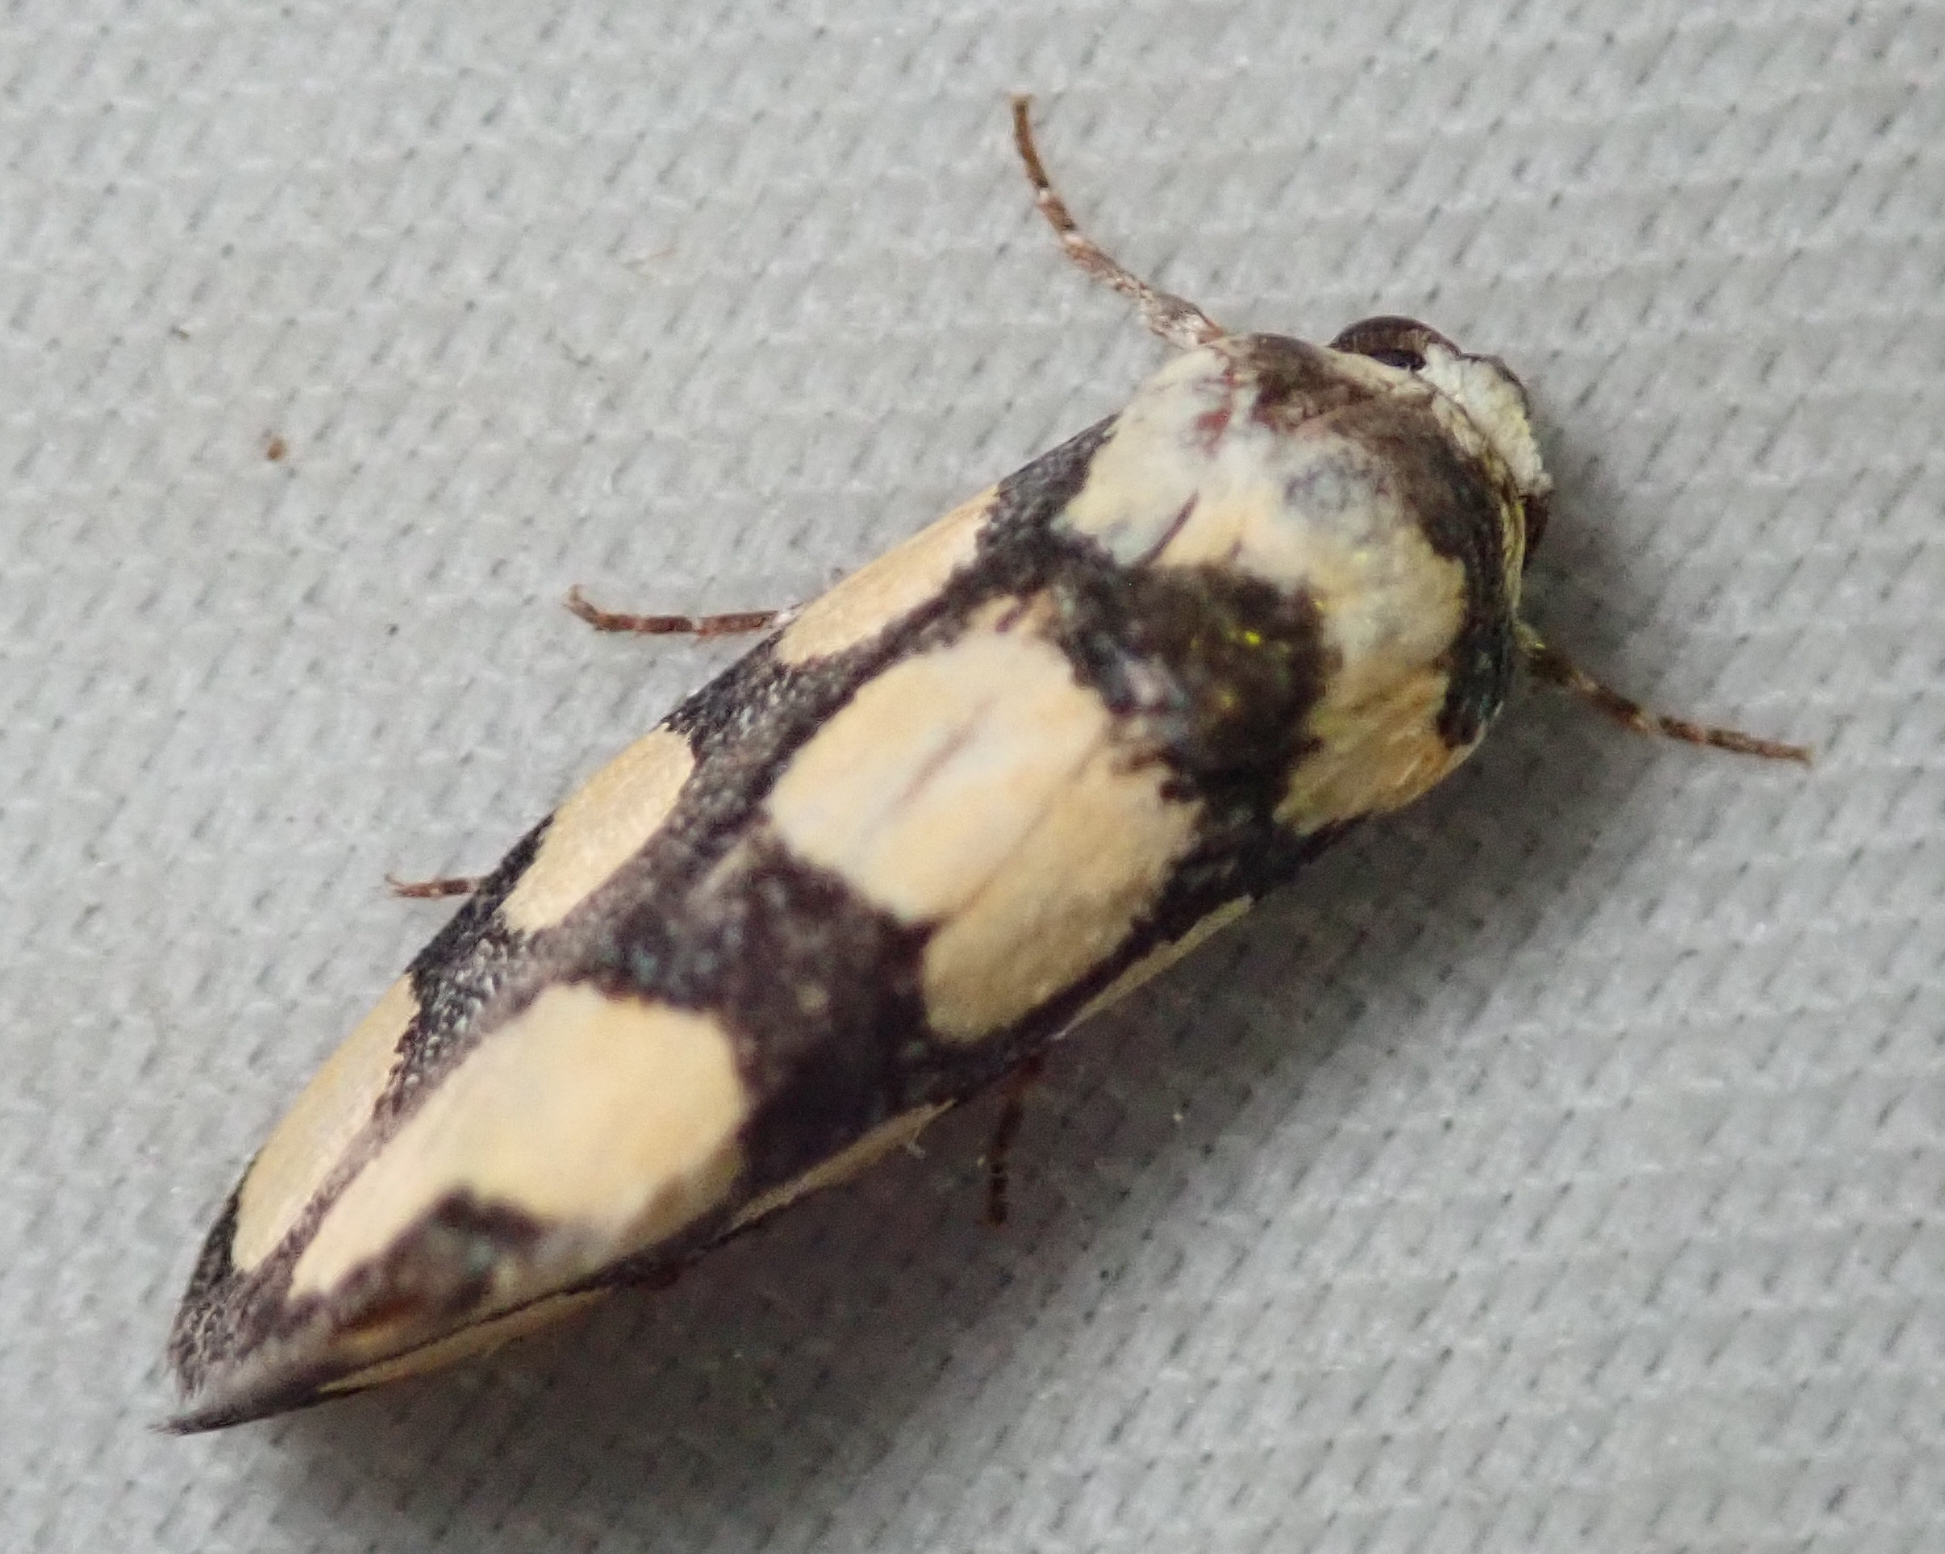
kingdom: Animalia
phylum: Arthropoda
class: Insecta
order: Lepidoptera
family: Noctuidae
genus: Acontia
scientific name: Acontia guttifera
